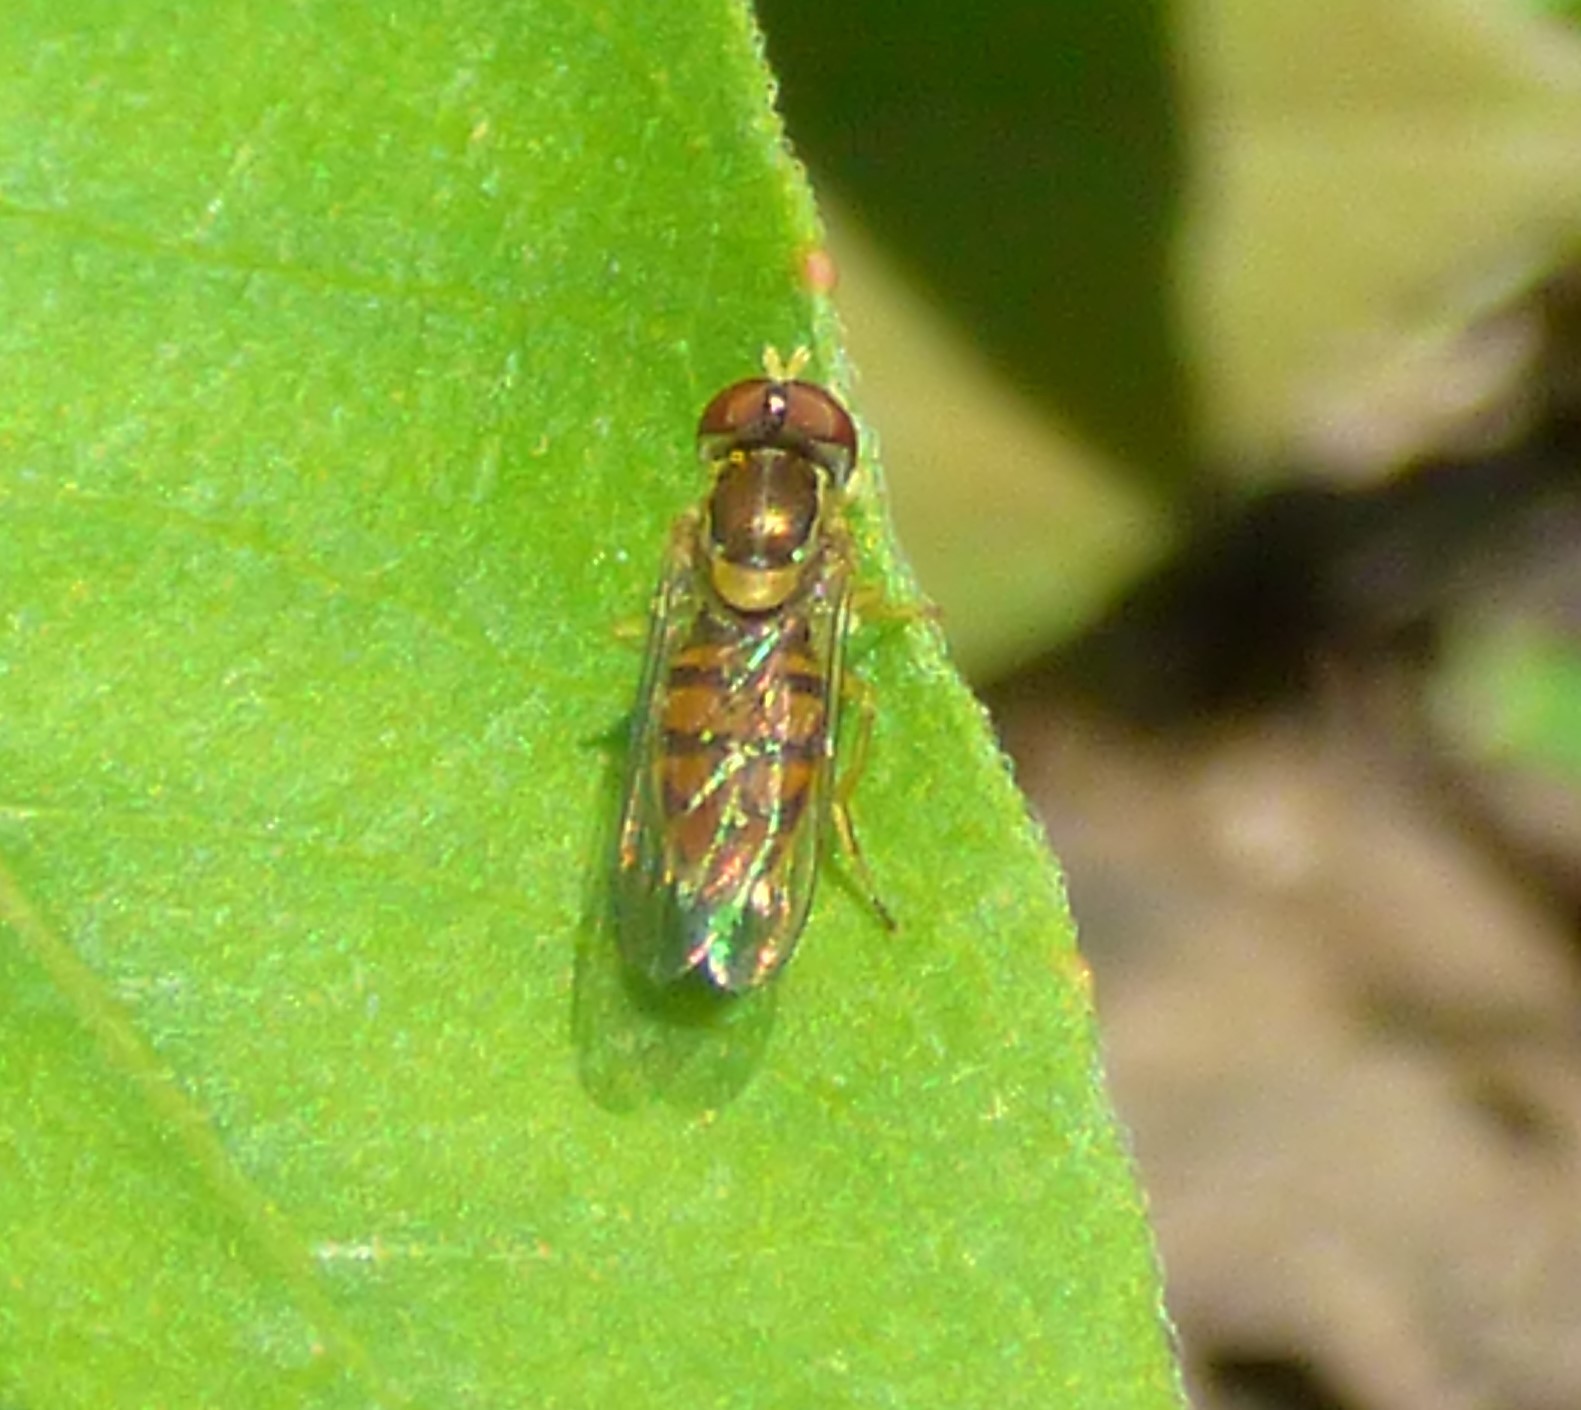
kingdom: Animalia
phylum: Arthropoda
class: Insecta
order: Diptera
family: Syrphidae
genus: Toxomerus
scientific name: Toxomerus marginatus
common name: Syrphid fly
